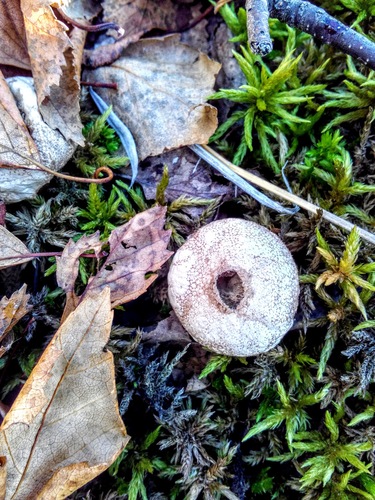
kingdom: Fungi
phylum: Basidiomycota
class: Agaricomycetes
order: Agaricales
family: Lycoperdaceae
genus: Lycoperdon
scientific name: Lycoperdon perlatum
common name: Common puffball
